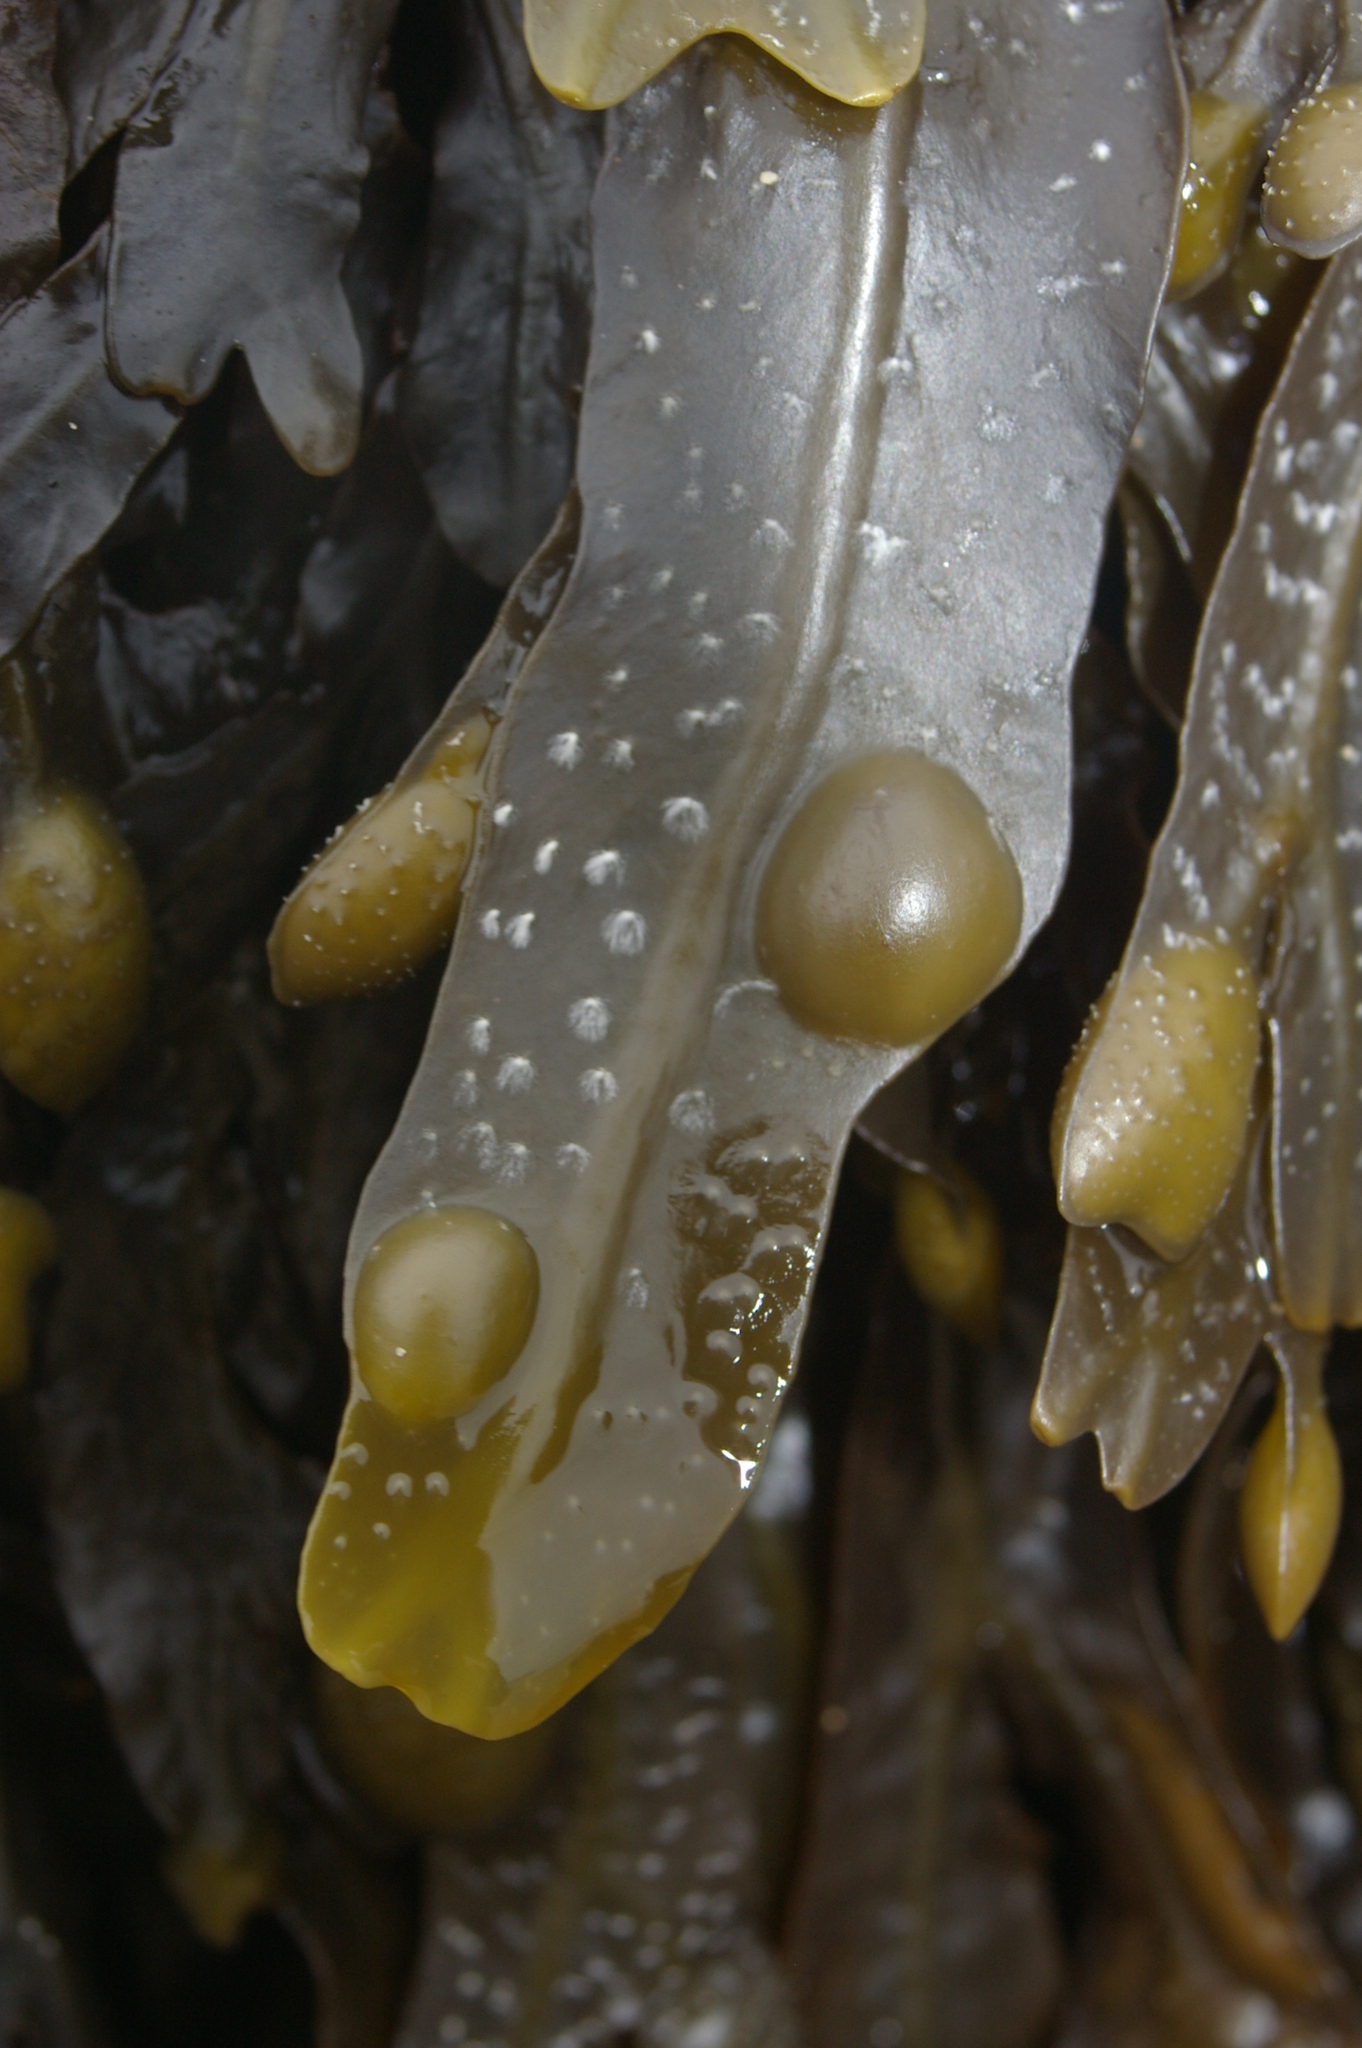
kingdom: Chromista
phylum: Ochrophyta
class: Phaeophyceae
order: Fucales
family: Fucaceae
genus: Fucus
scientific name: Fucus vesiculosus
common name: Bladder wrack
